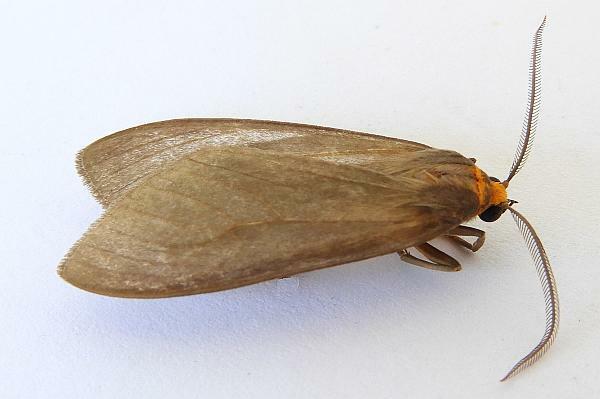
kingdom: Animalia
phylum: Arthropoda
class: Insecta
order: Lepidoptera
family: Erebidae
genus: Opharus
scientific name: Opharus muricolor
